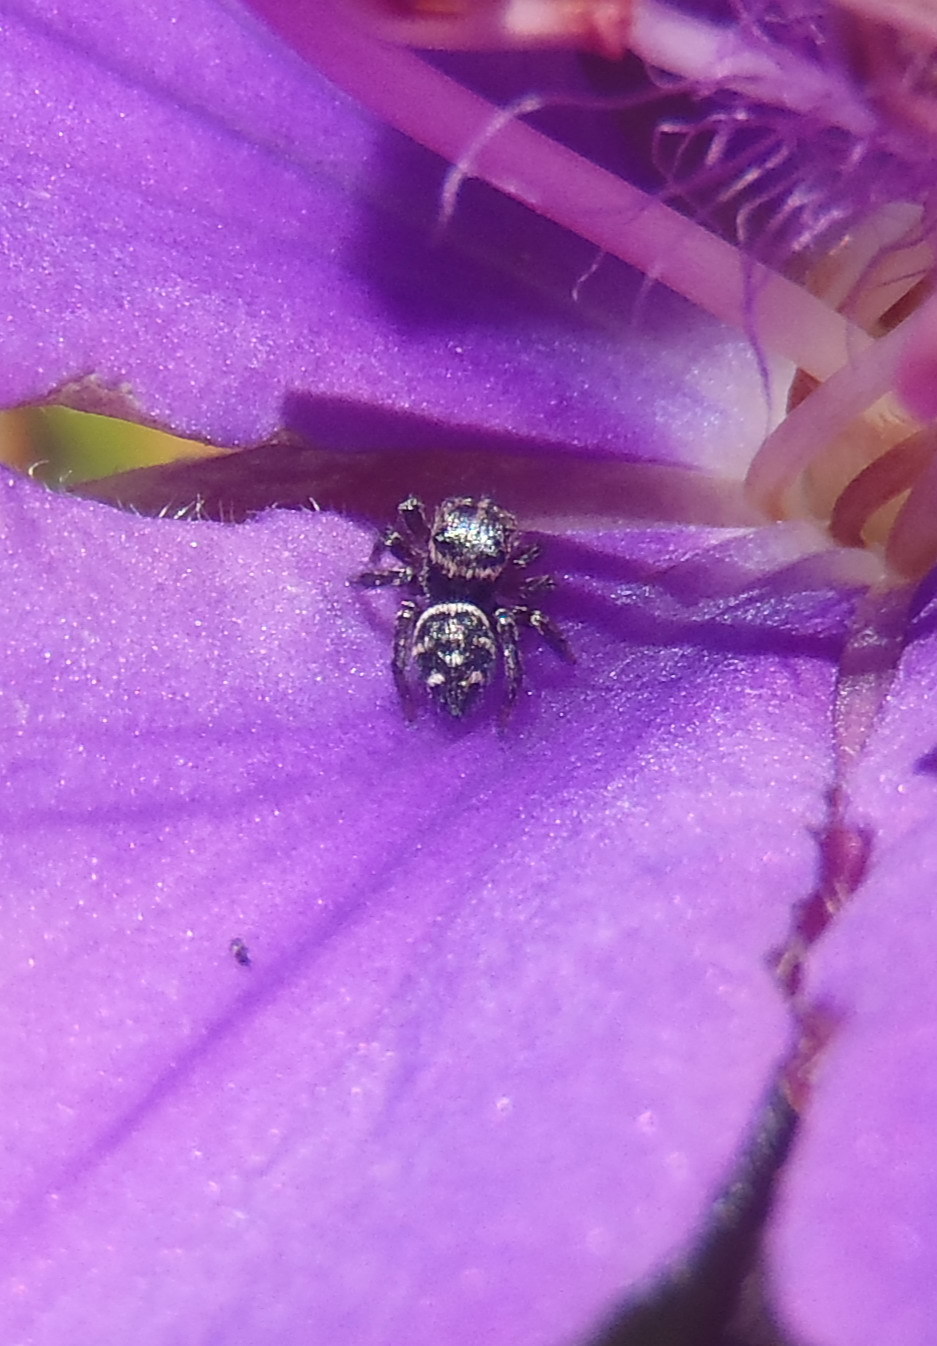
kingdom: Animalia
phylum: Arthropoda
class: Arachnida
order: Araneae
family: Salticidae
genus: Baryphas
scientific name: Baryphas ahenus
